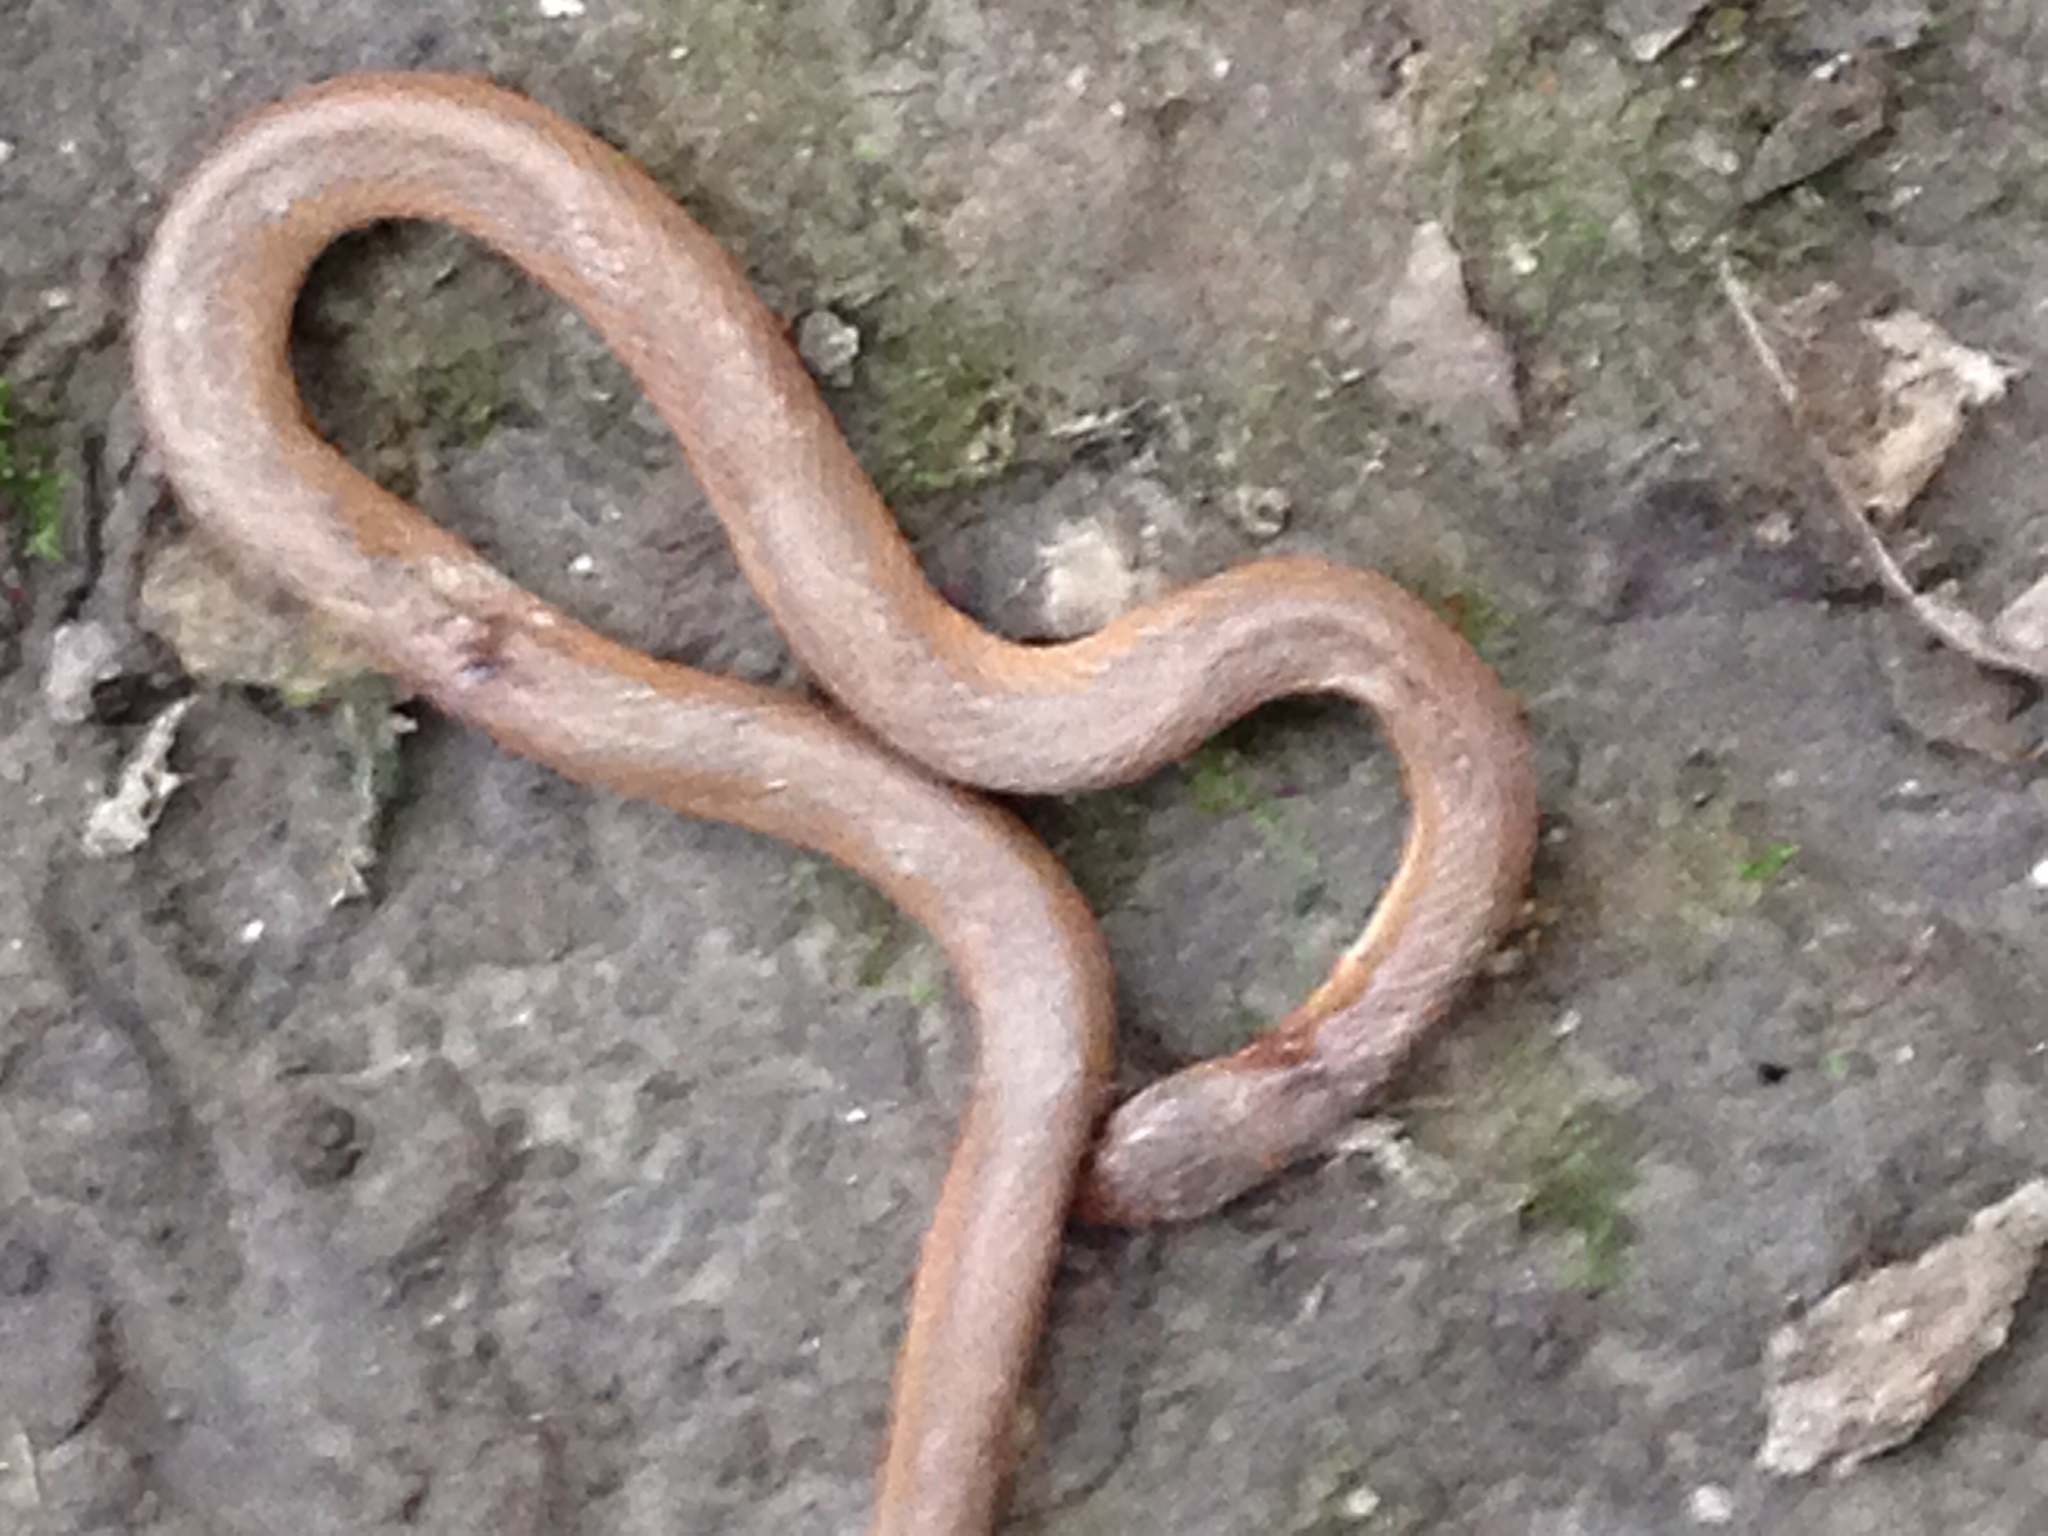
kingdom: Animalia
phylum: Chordata
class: Squamata
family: Colubridae
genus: Virginia
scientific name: Virginia valeriae
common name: Smooth earth snake
